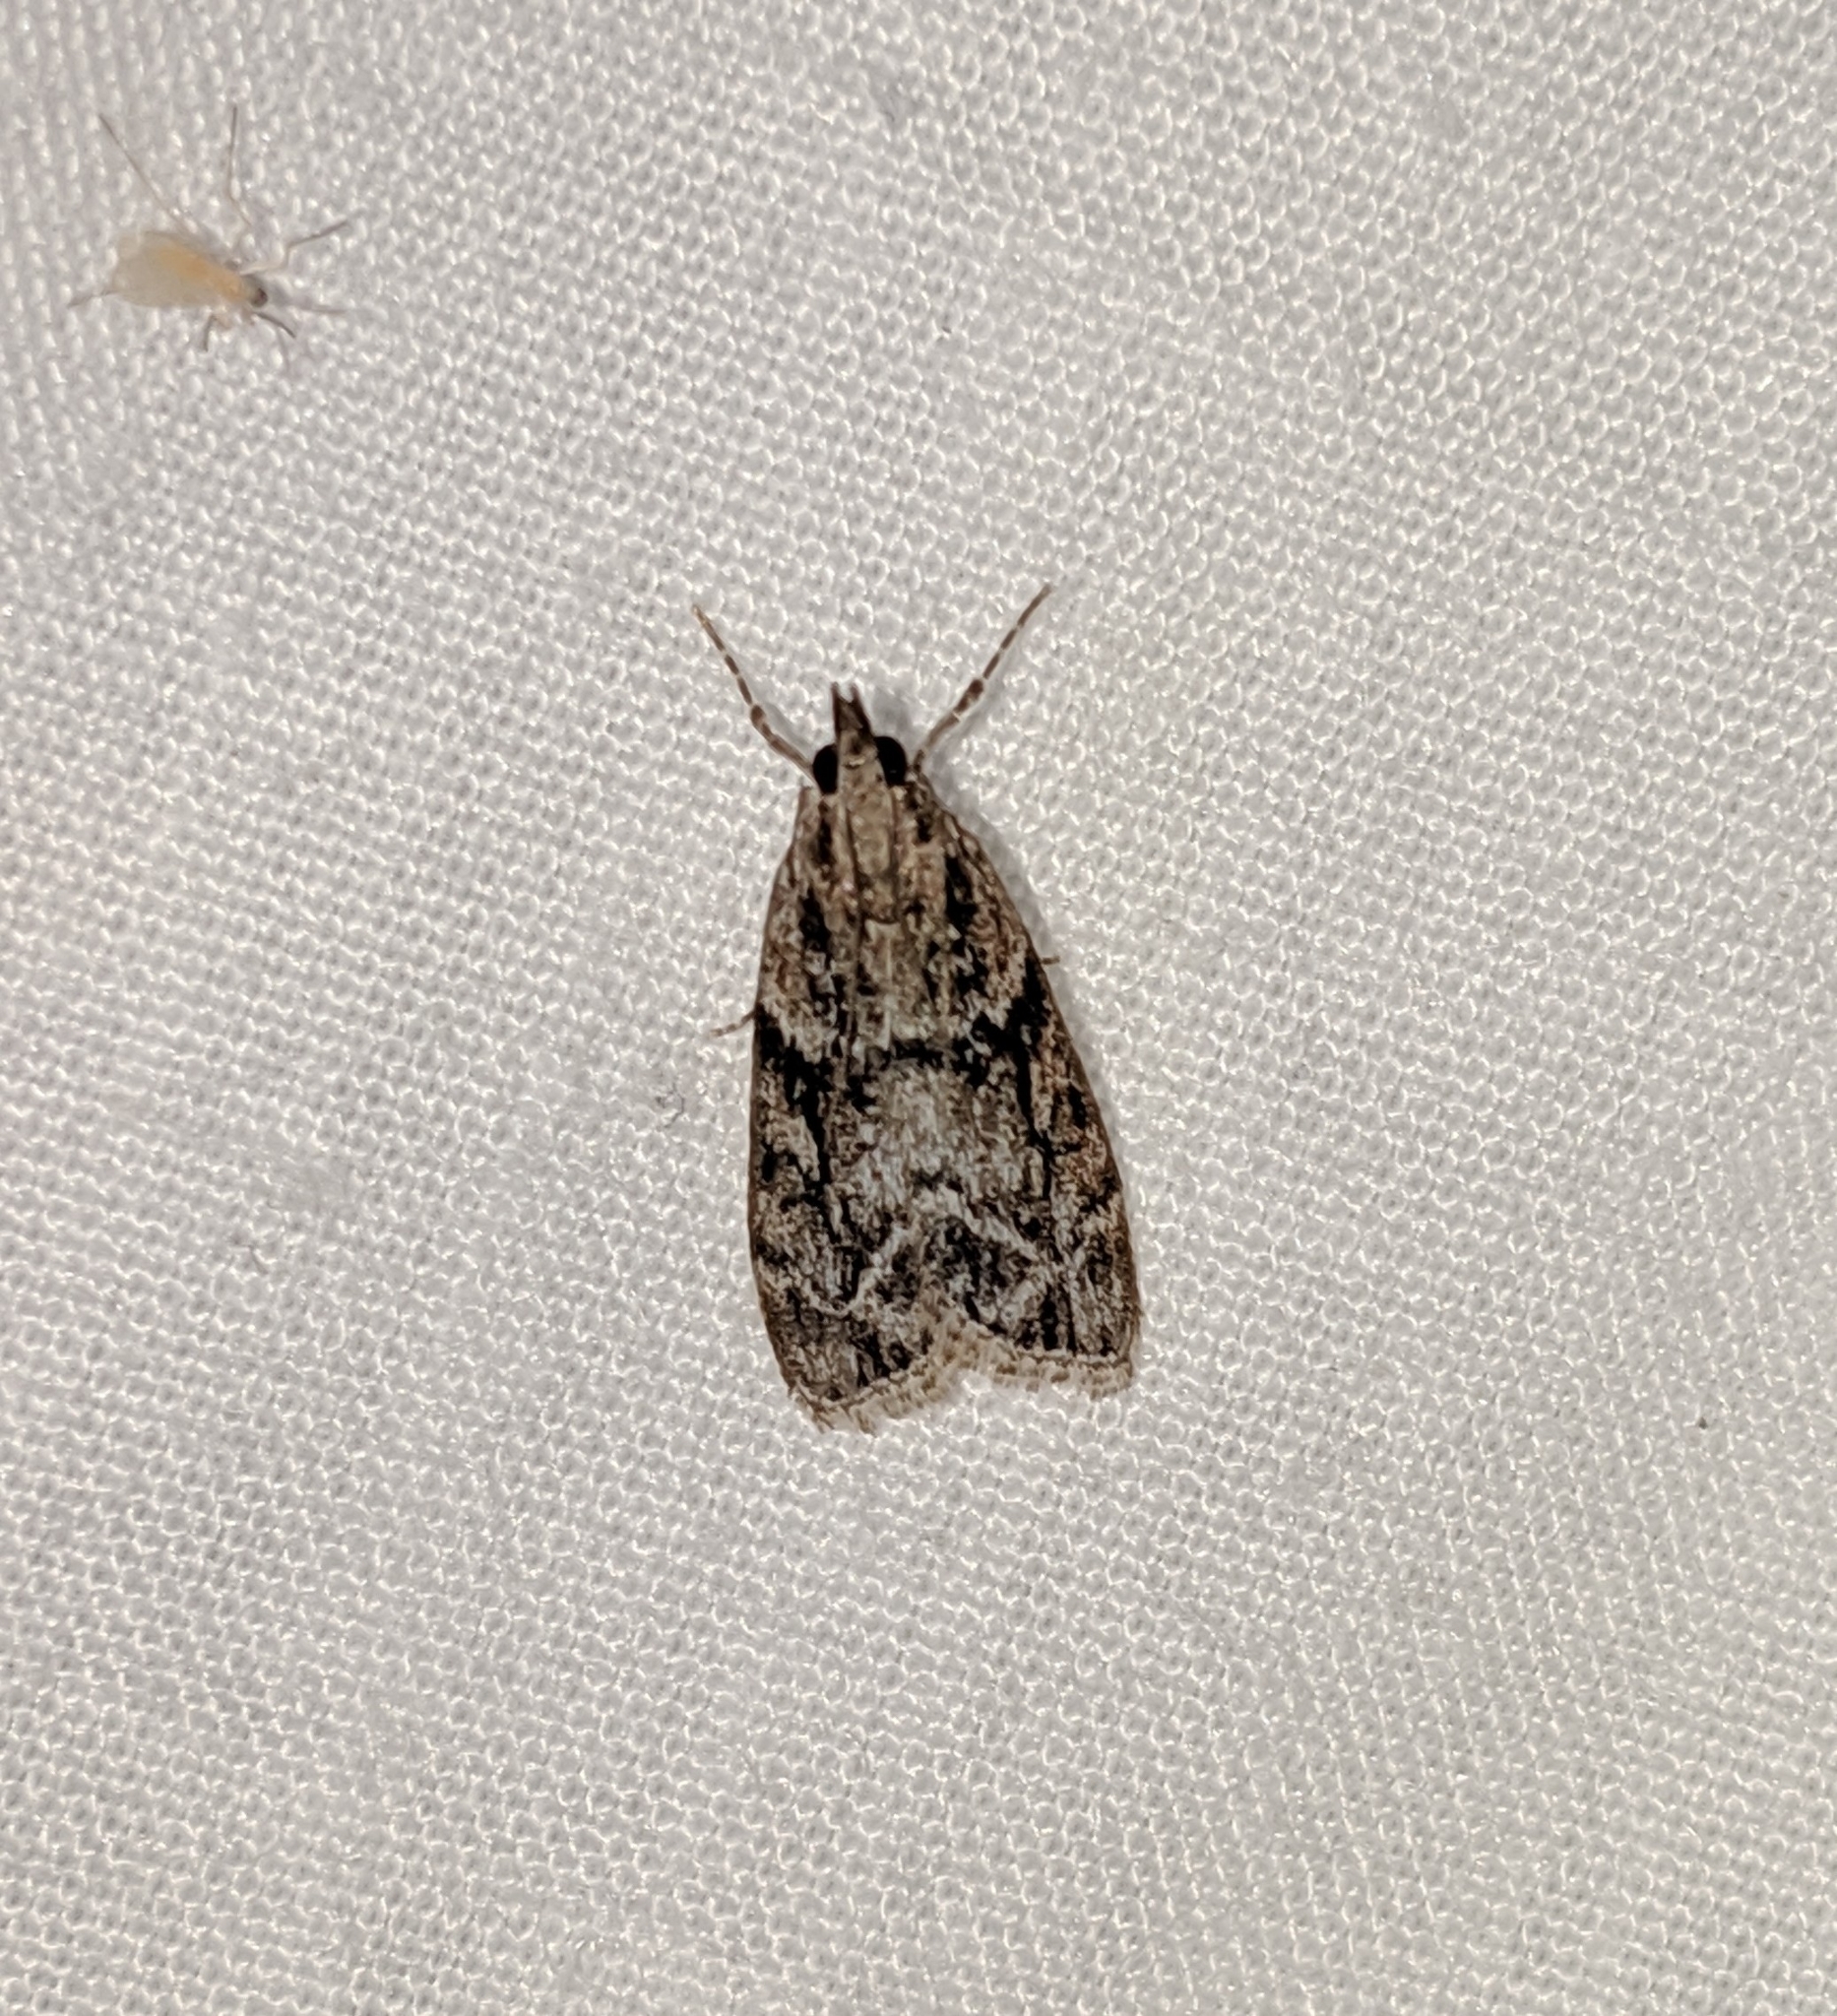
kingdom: Animalia
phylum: Arthropoda
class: Insecta
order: Lepidoptera
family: Crambidae
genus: Eudonia
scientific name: Eudonia spenceri
